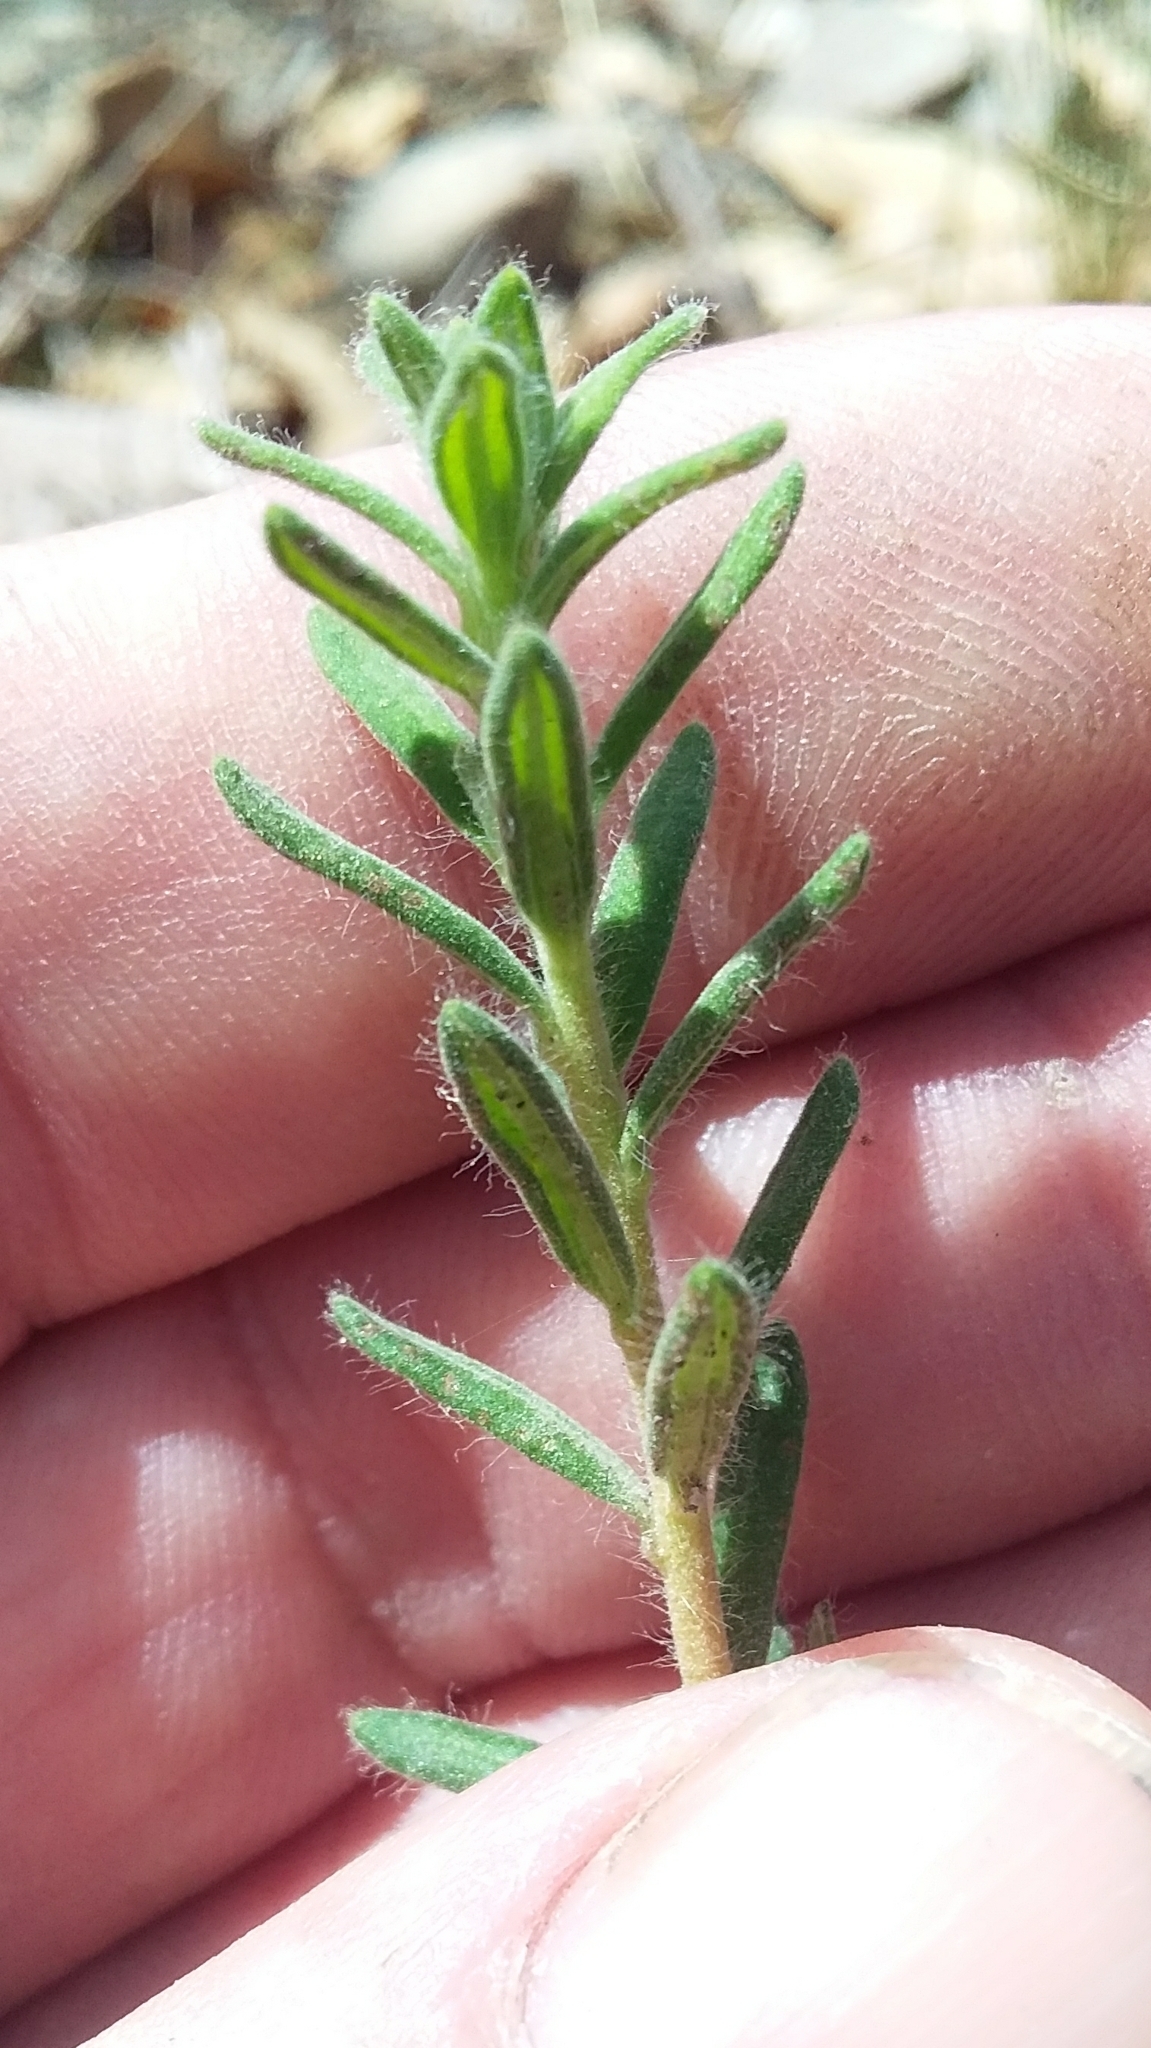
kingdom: Plantae
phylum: Tracheophyta
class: Magnoliopsida
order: Dilleniales
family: Dilleniaceae
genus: Hibbertia
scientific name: Hibbertia crinita
